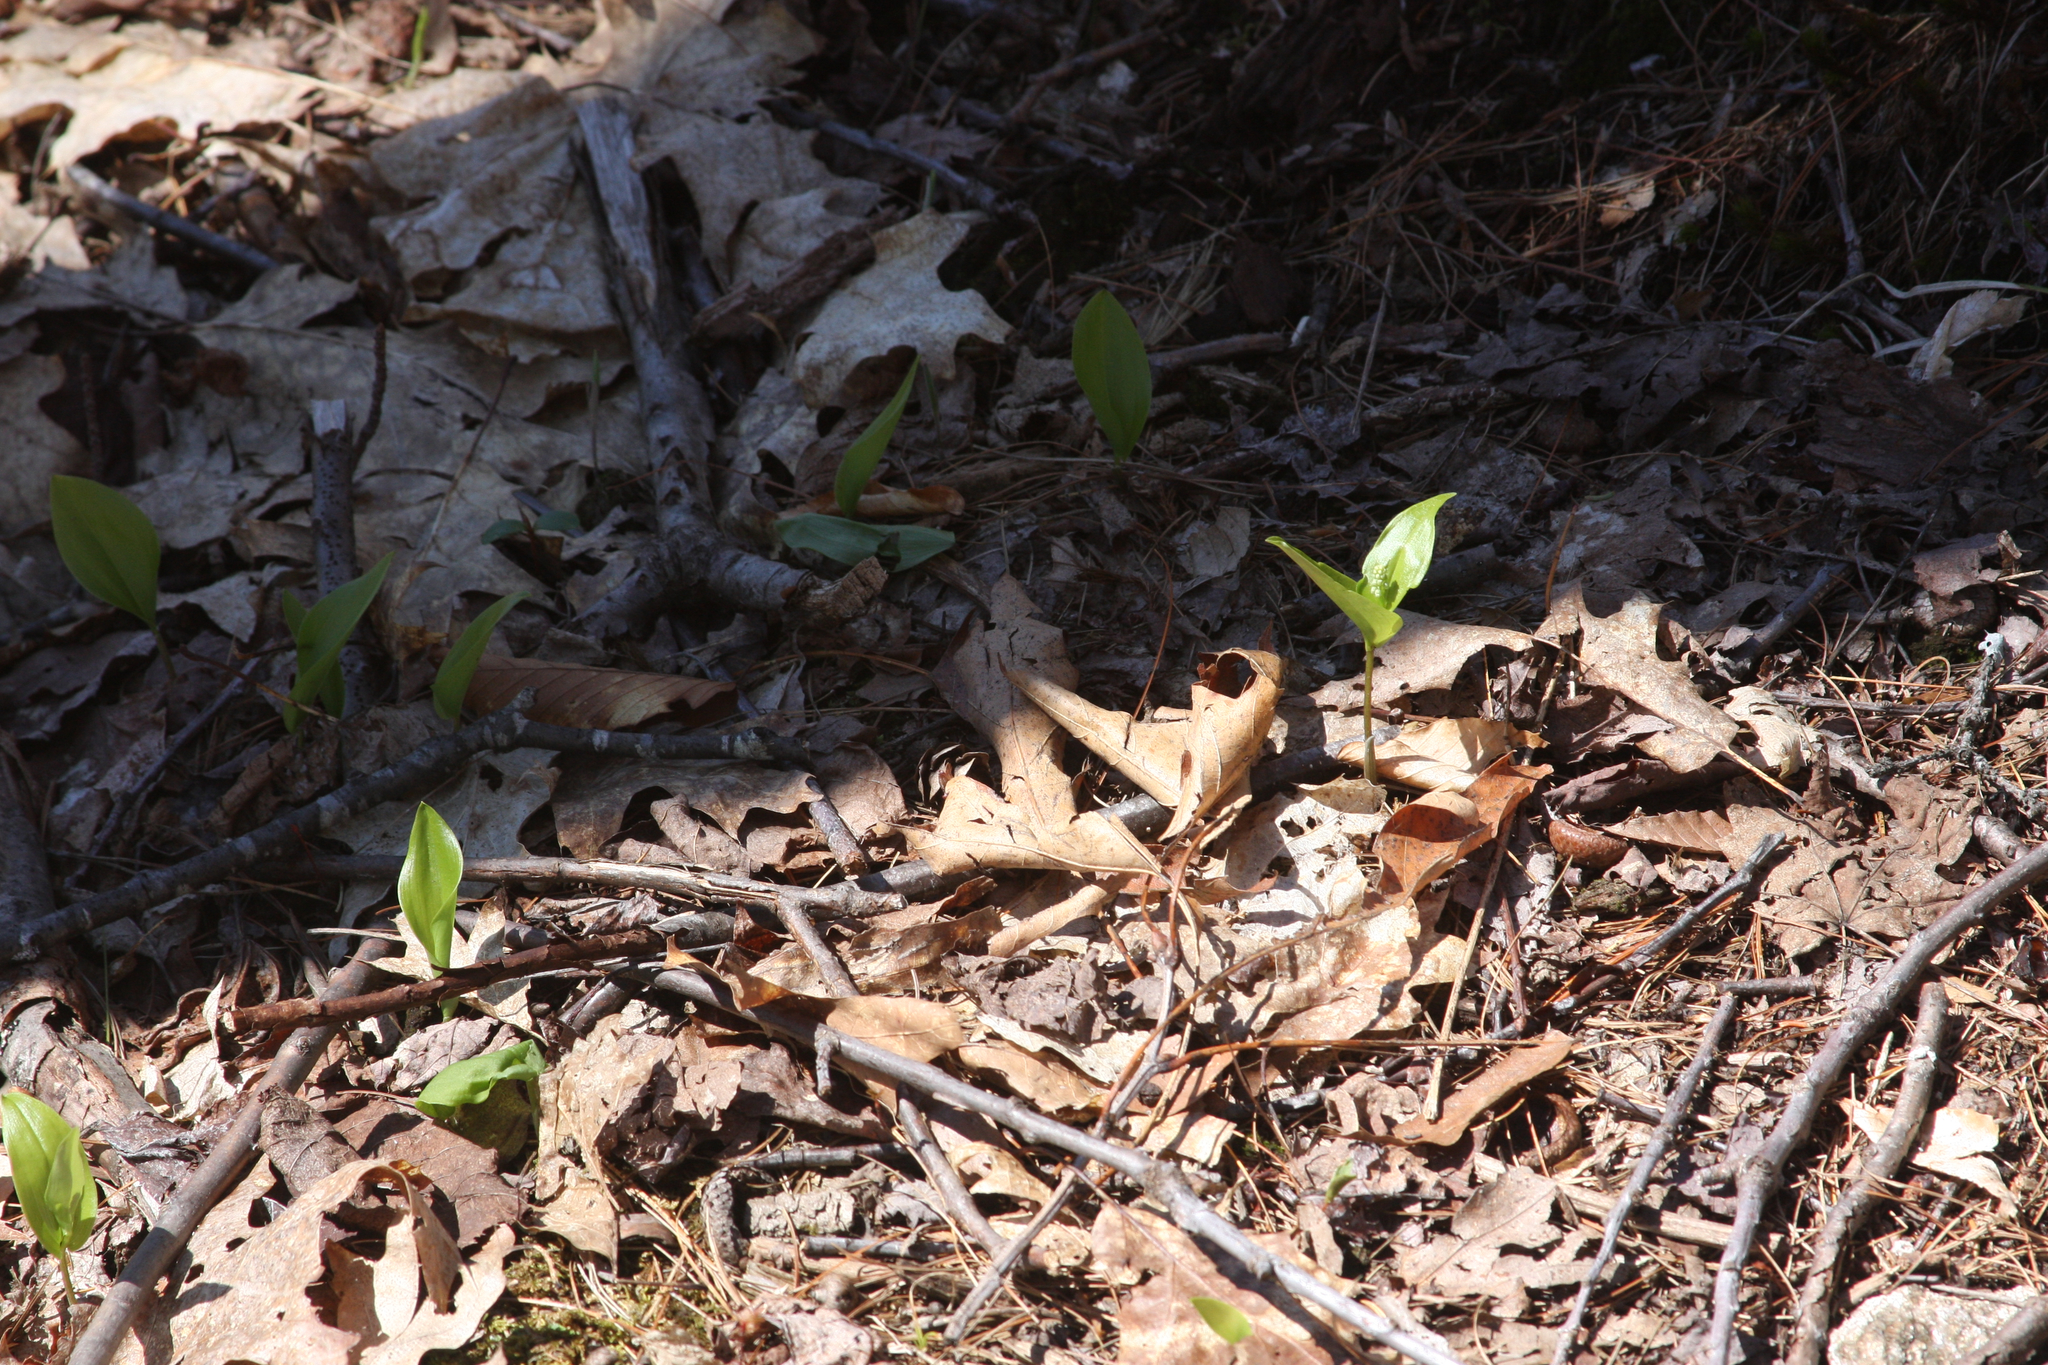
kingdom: Plantae
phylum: Tracheophyta
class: Liliopsida
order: Asparagales
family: Asparagaceae
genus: Maianthemum
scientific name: Maianthemum canadense
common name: False lily-of-the-valley
